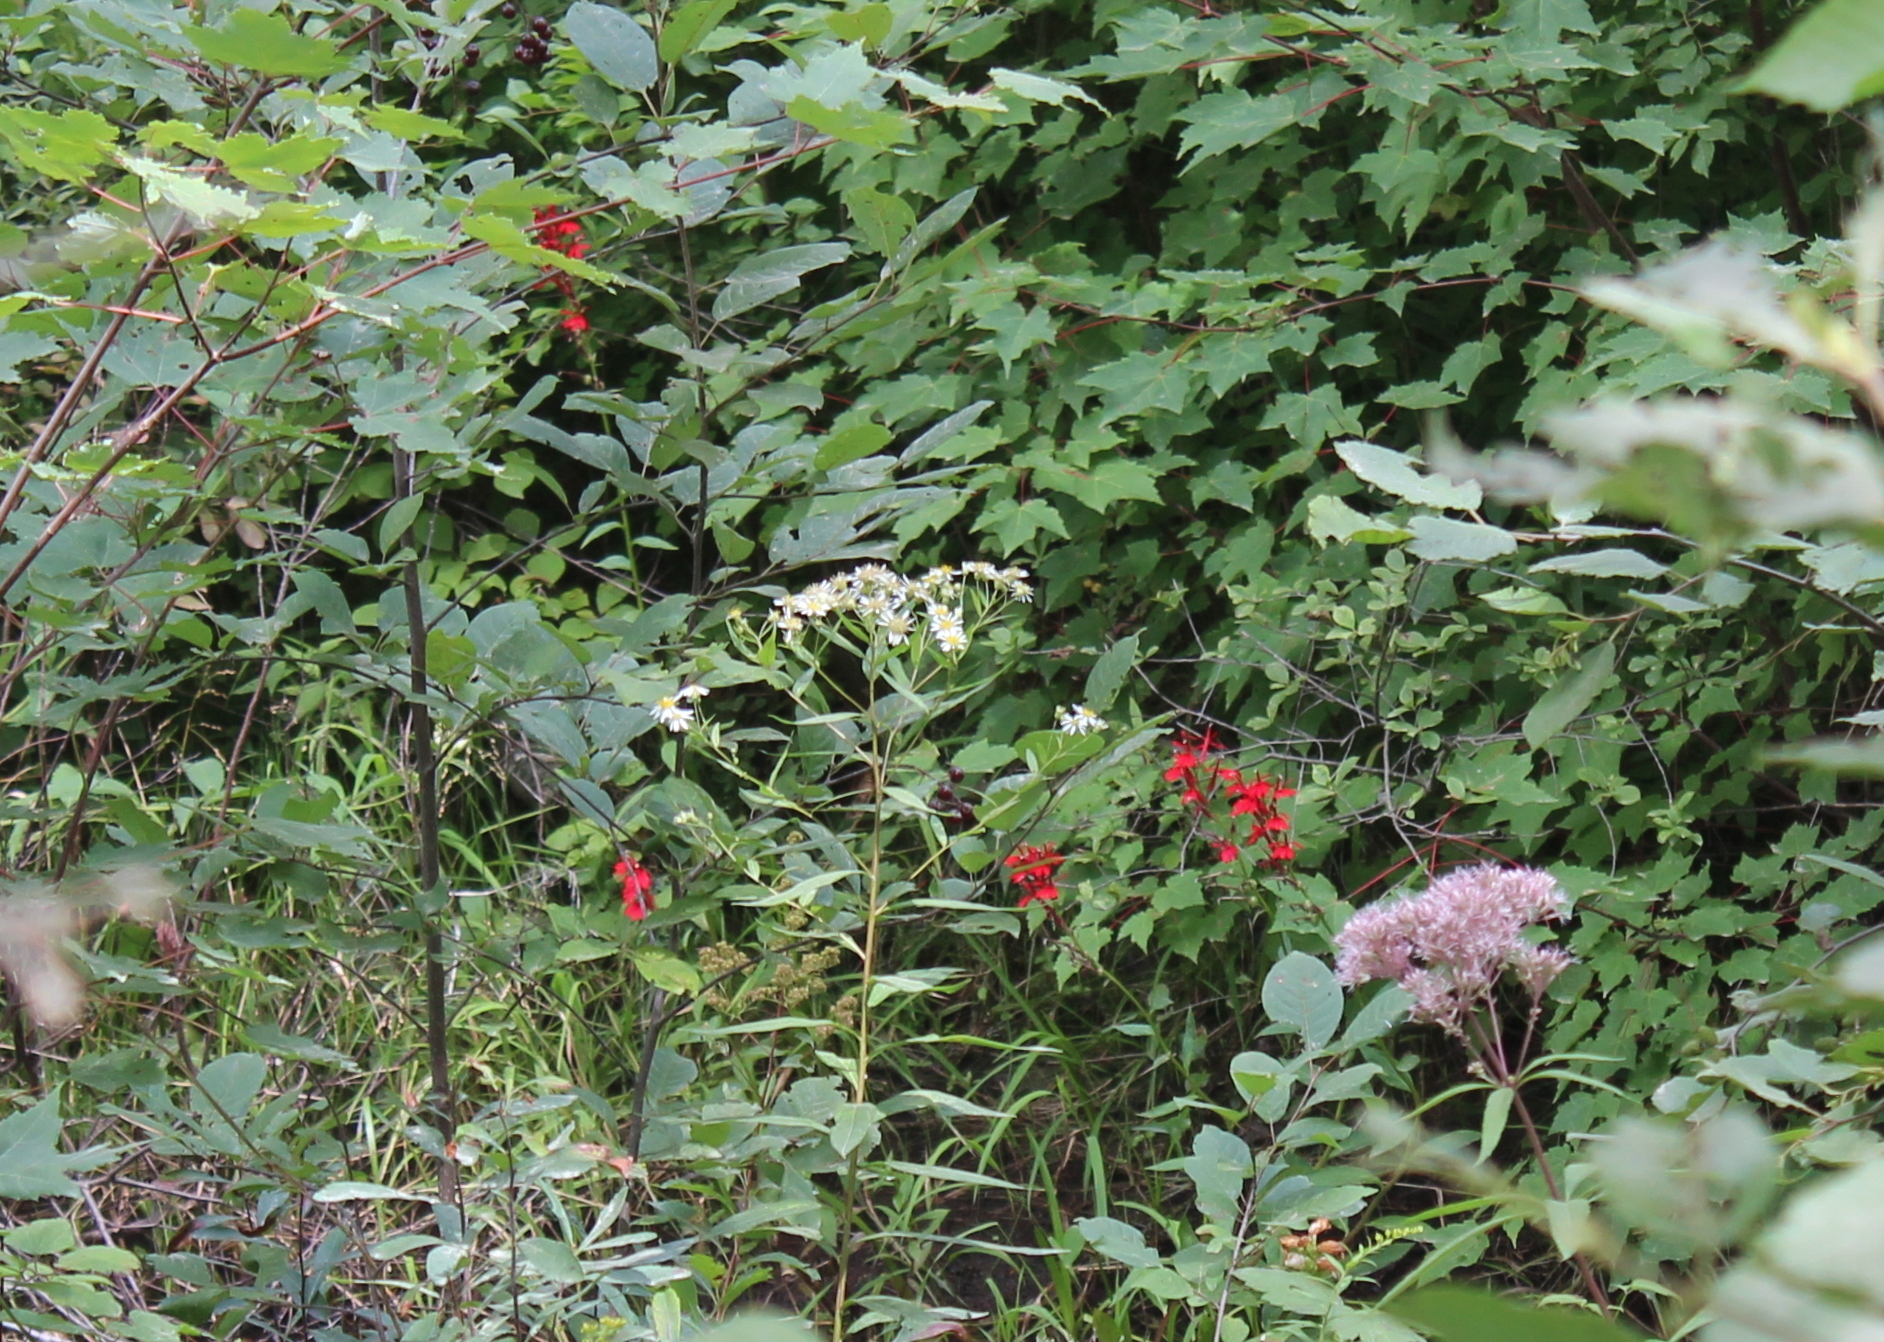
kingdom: Plantae
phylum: Tracheophyta
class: Magnoliopsida
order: Asterales
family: Campanulaceae
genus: Lobelia
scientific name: Lobelia cardinalis
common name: Cardinal flower
